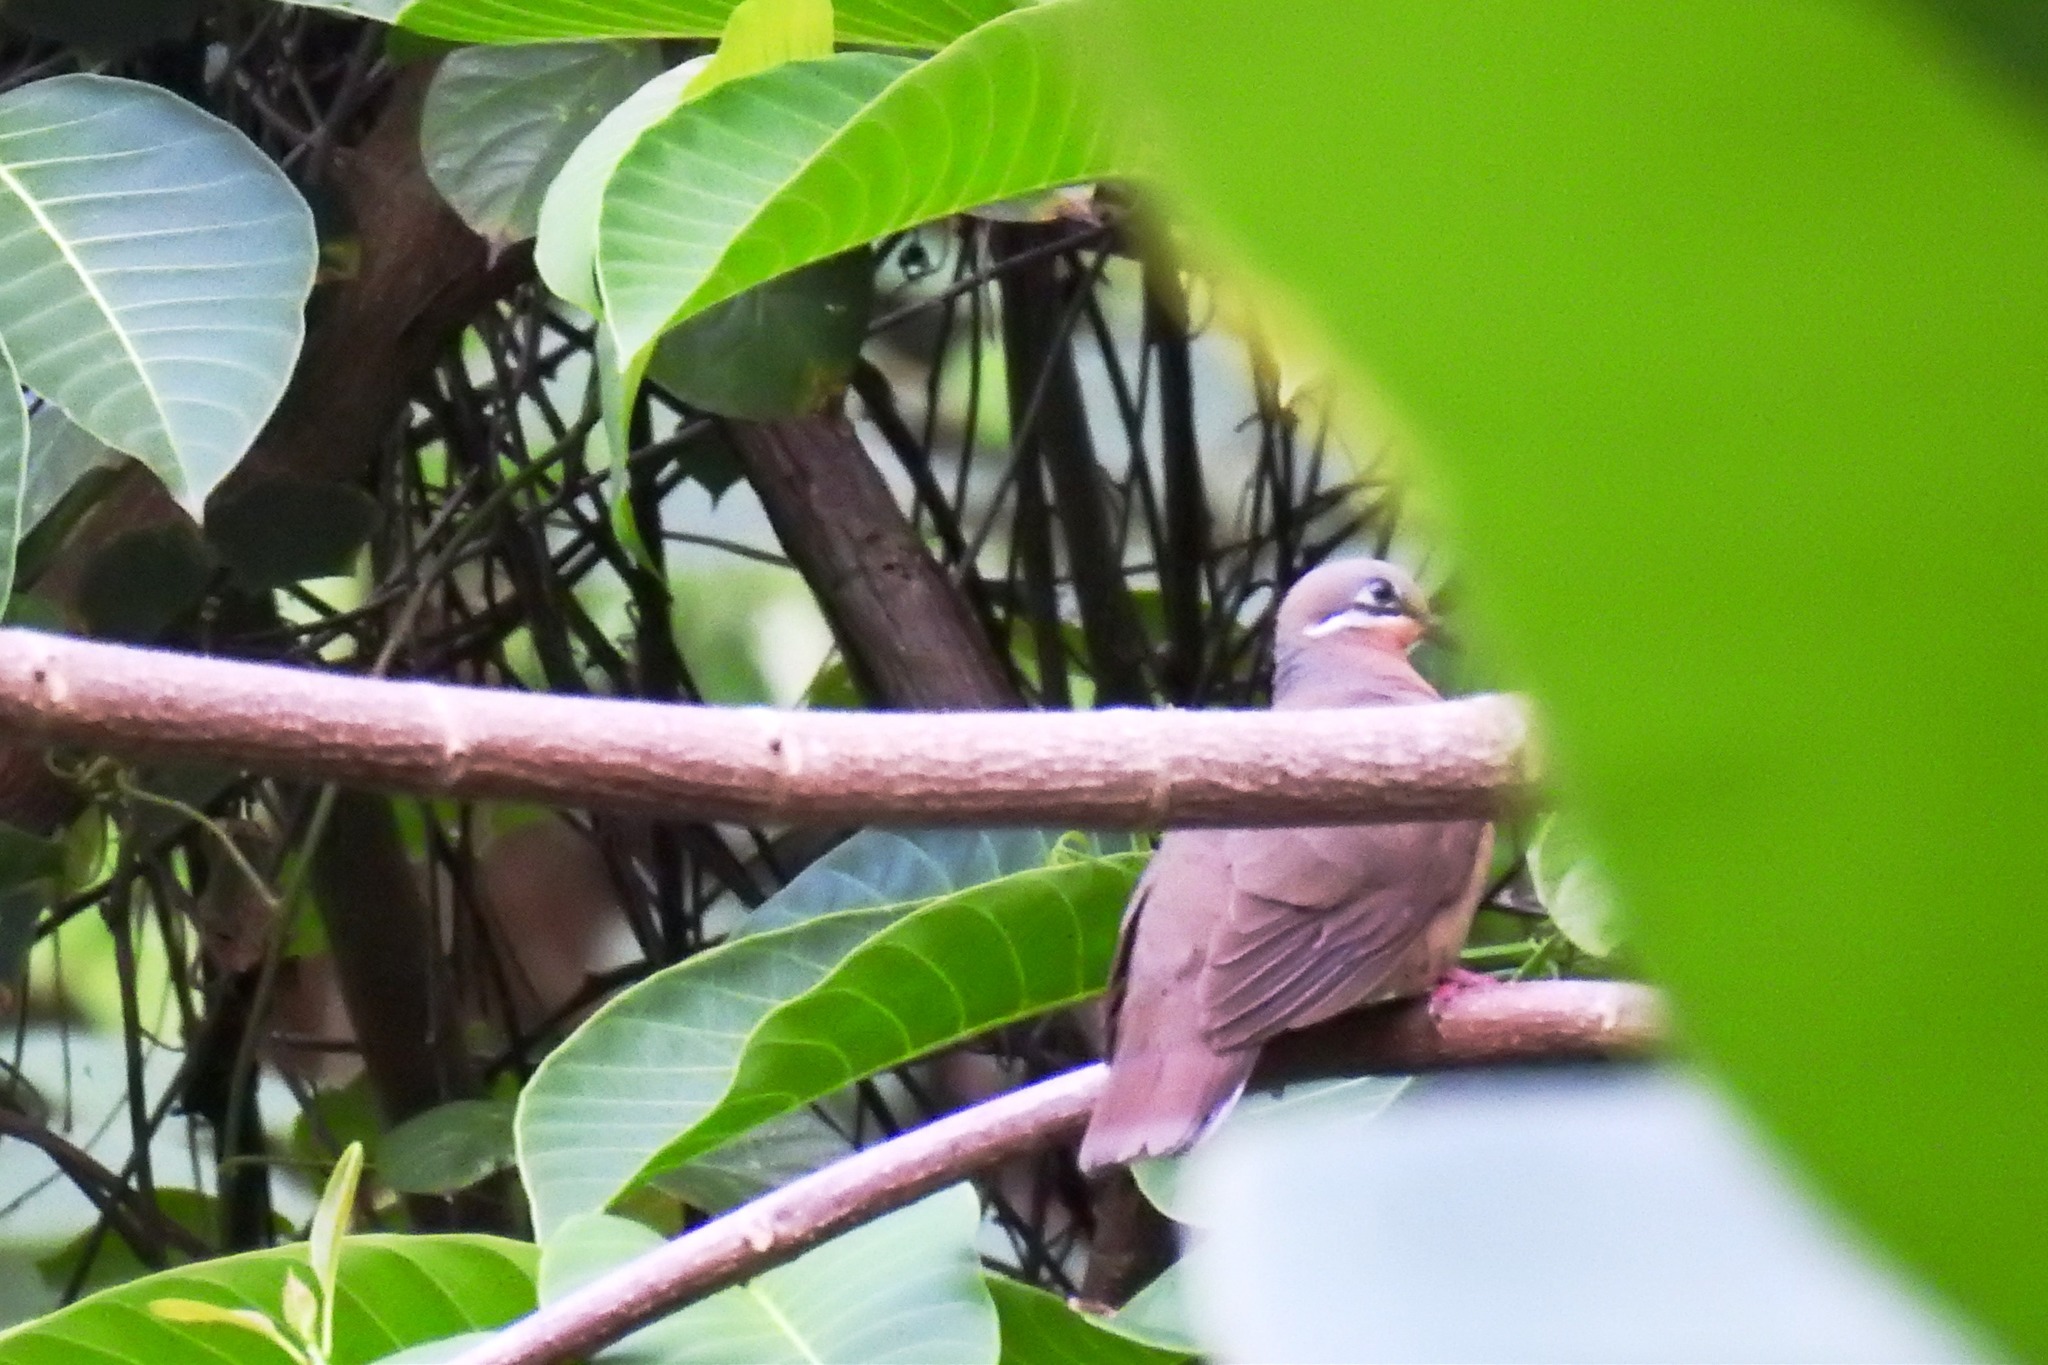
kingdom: Animalia
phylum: Chordata
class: Aves
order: Columbiformes
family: Columbidae
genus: Phapitreron
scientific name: Phapitreron leucotis
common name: White-eared brown dove
